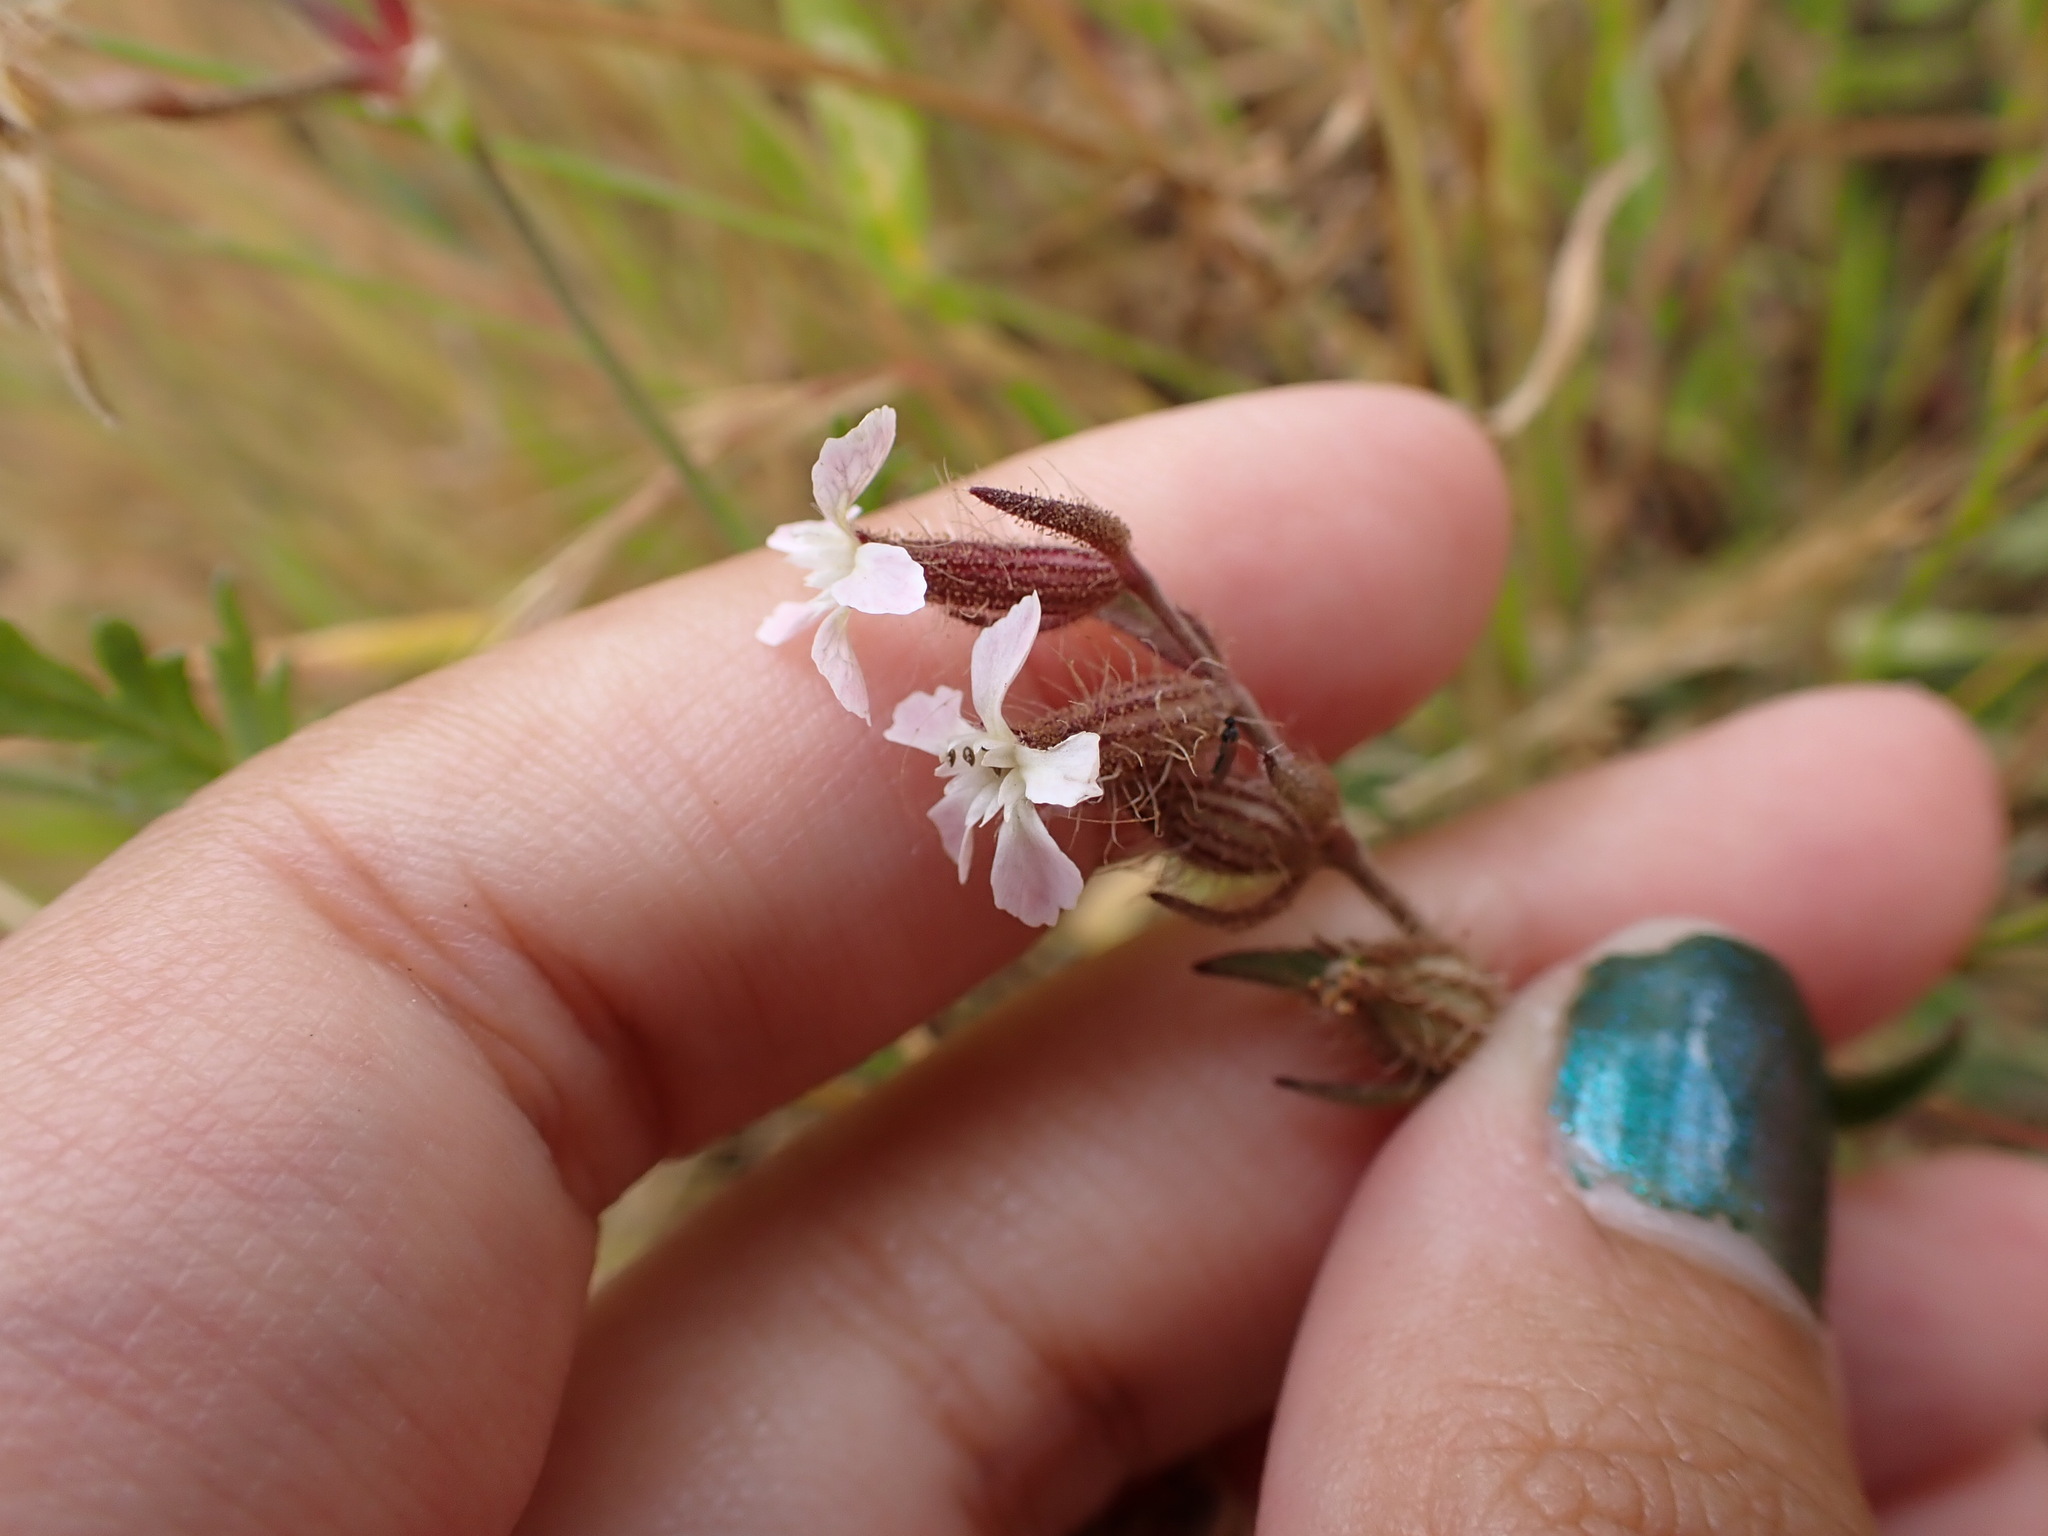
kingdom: Plantae
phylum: Tracheophyta
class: Magnoliopsida
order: Caryophyllales
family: Caryophyllaceae
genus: Silene
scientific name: Silene gallica
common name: Small-flowered catchfly
